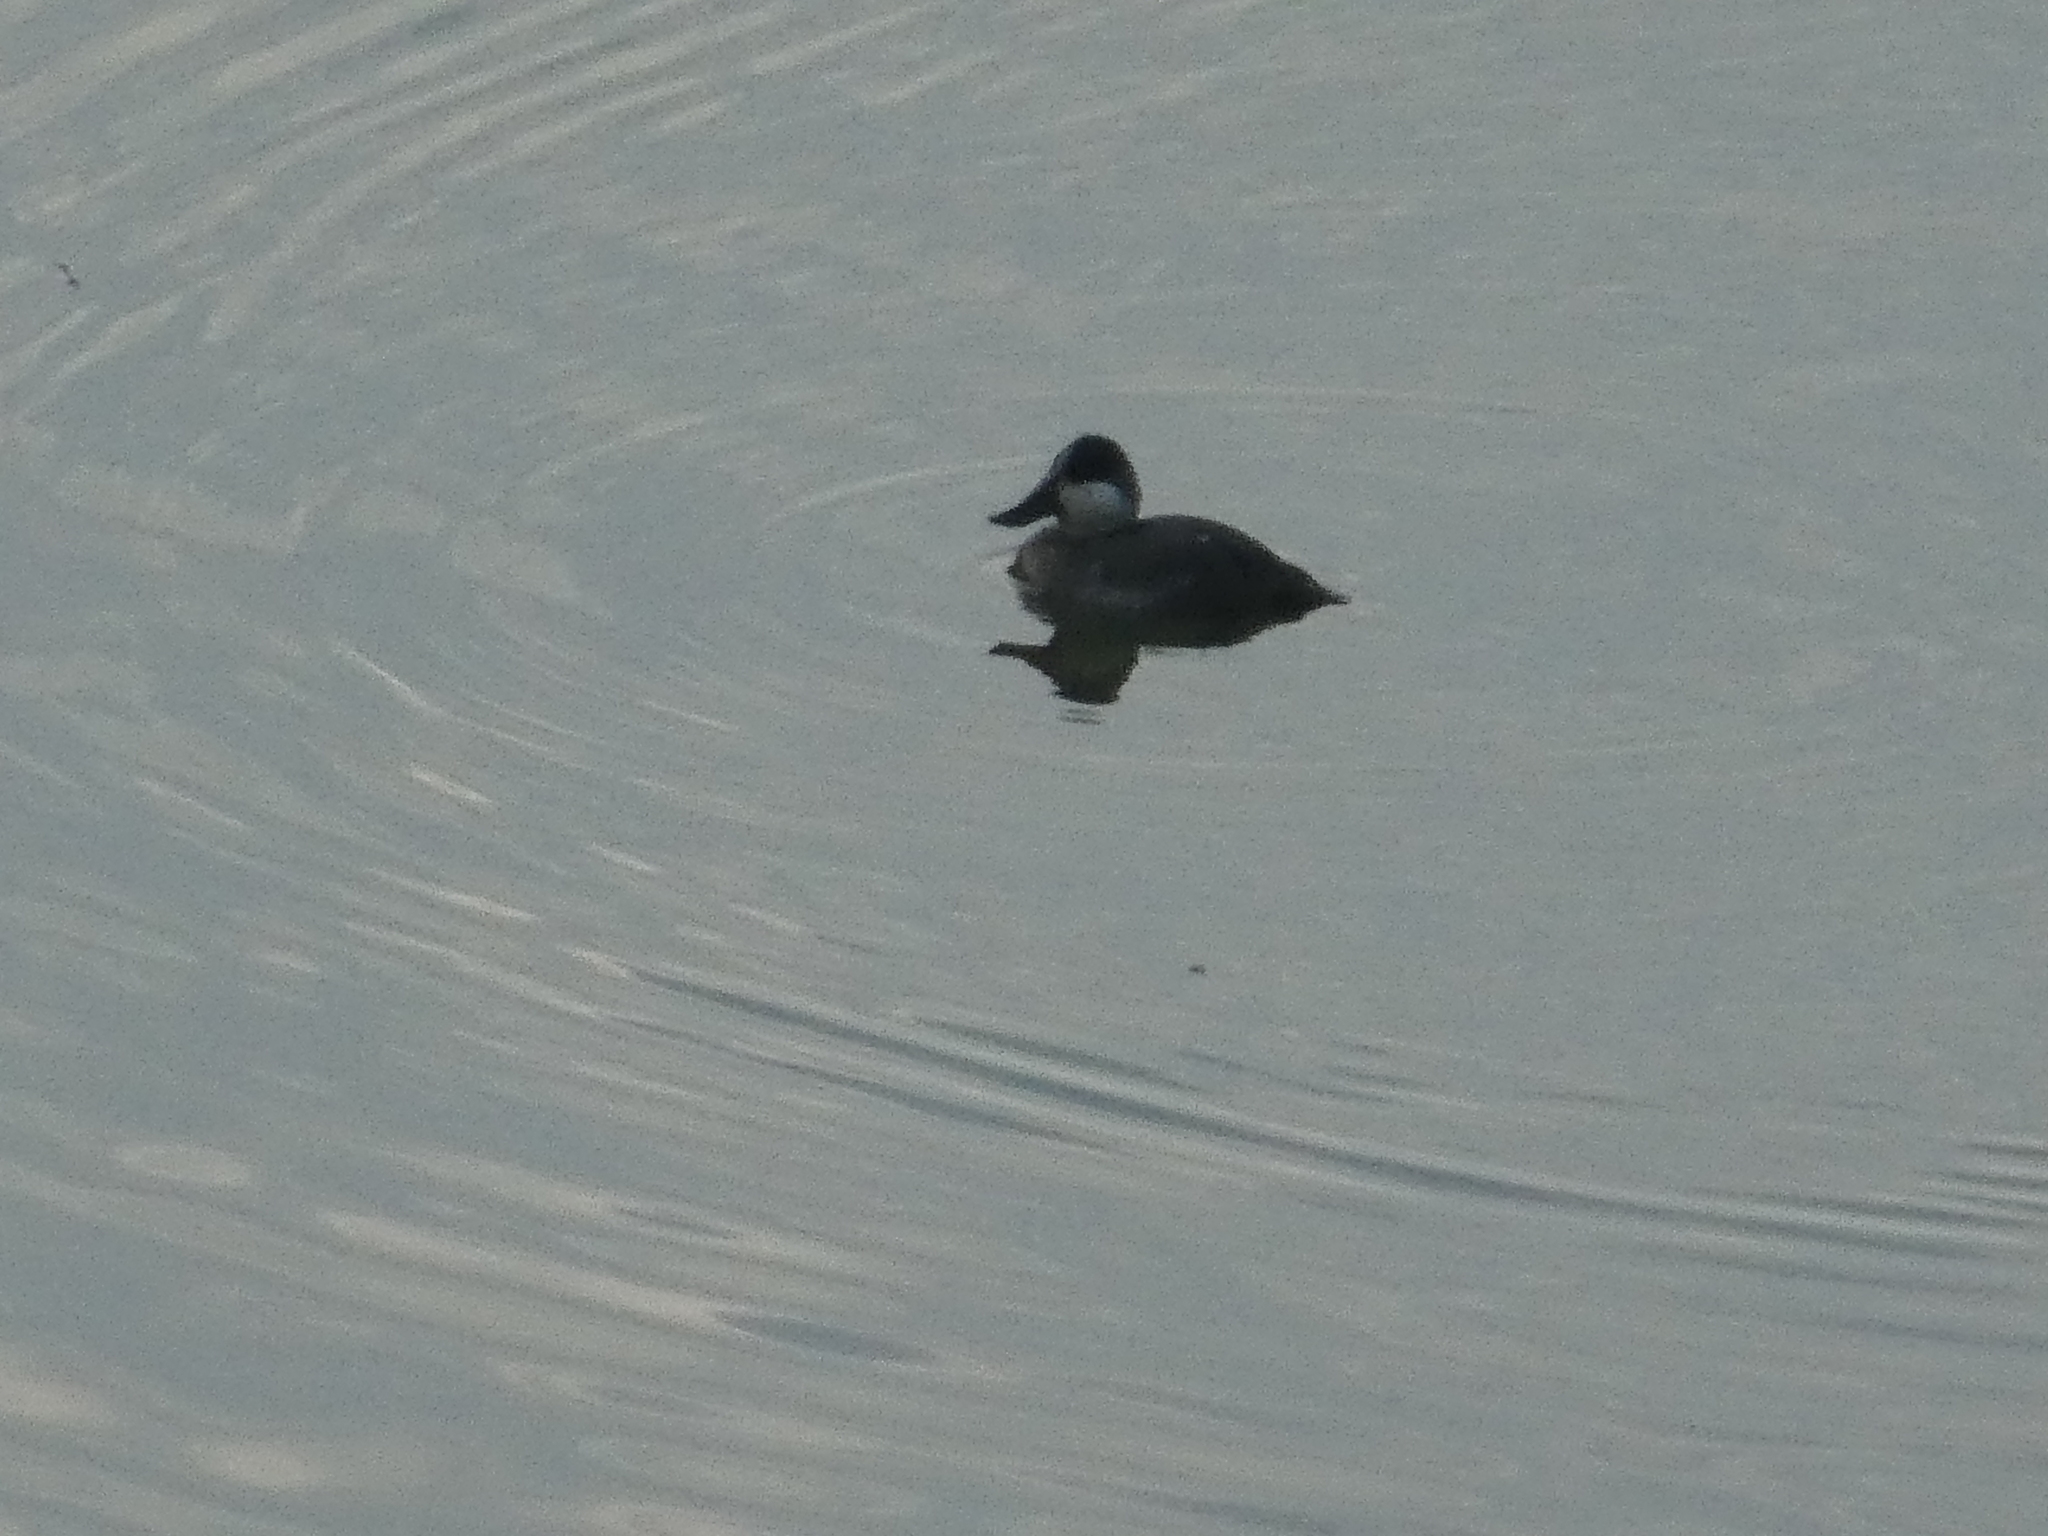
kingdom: Animalia
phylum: Chordata
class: Aves
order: Anseriformes
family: Anatidae
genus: Oxyura
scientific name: Oxyura jamaicensis
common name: Ruddy duck
